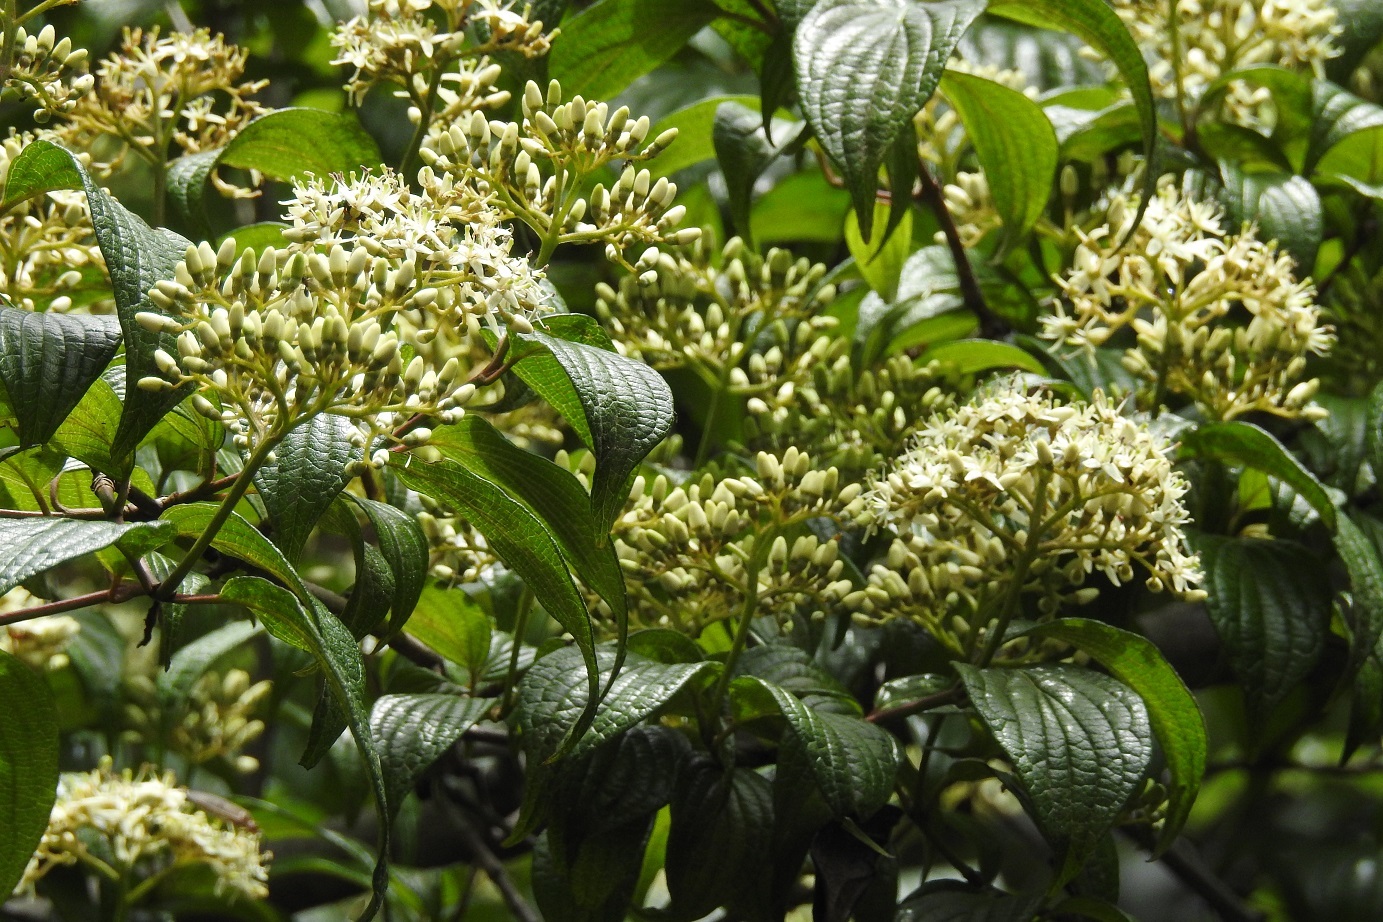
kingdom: Plantae
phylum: Tracheophyta
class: Magnoliopsida
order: Cornales
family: Cornaceae
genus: Cornus
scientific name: Cornus excelsa
